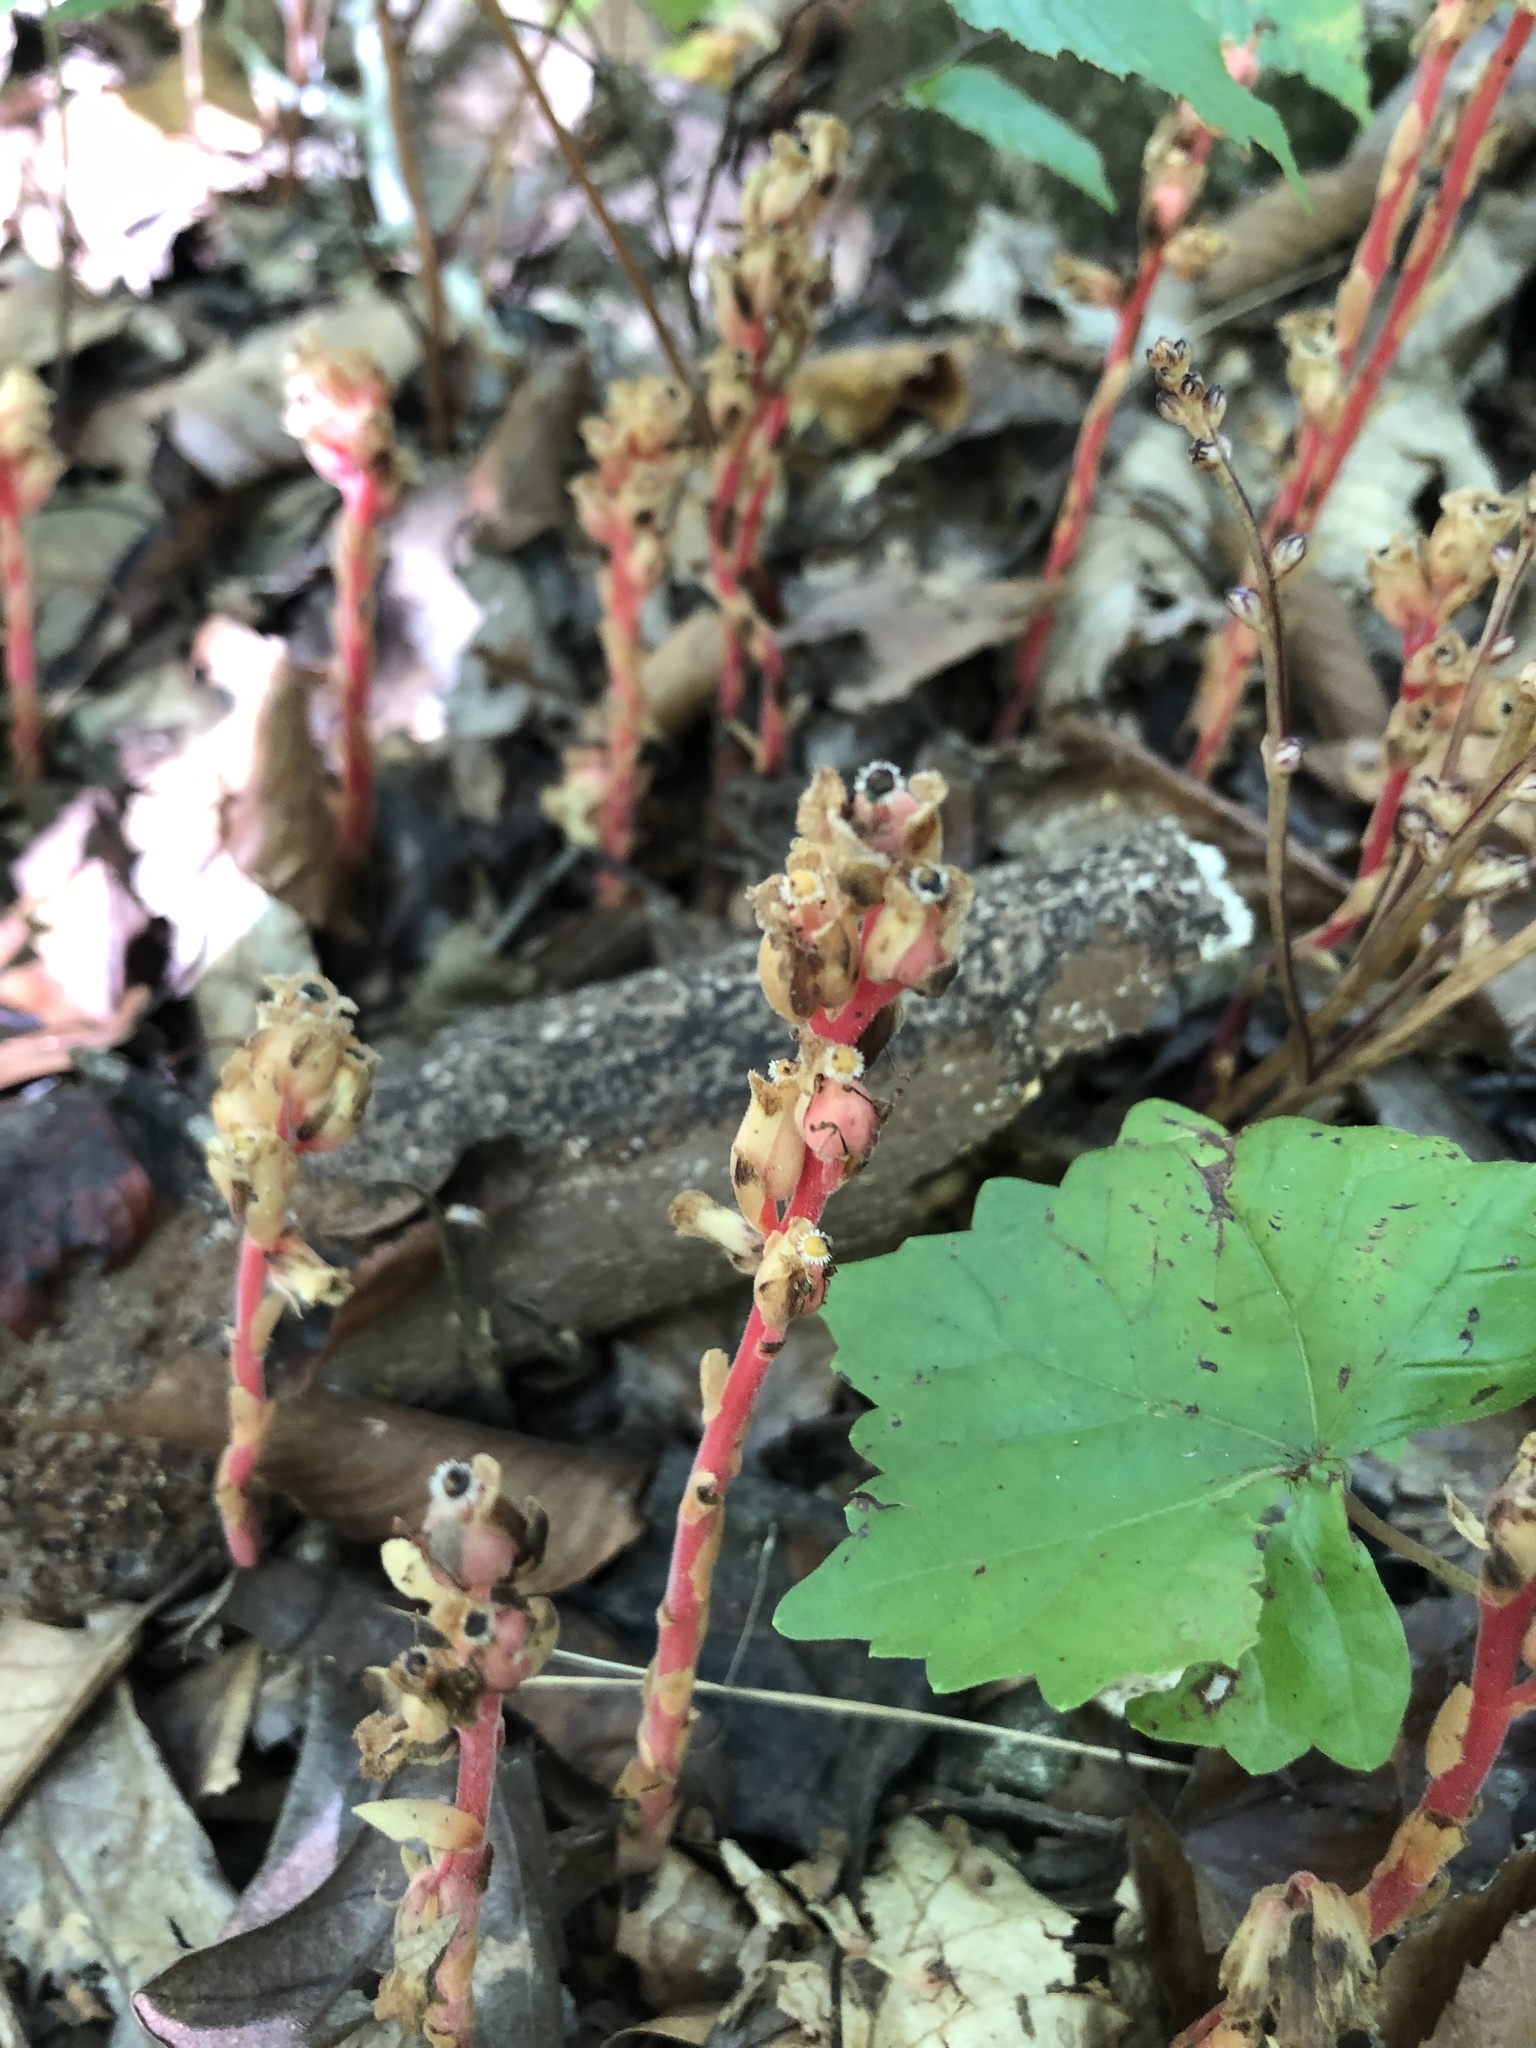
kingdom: Plantae
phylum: Tracheophyta
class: Magnoliopsida
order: Ericales
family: Ericaceae
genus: Hypopitys
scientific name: Hypopitys monotropa
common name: Yellow bird's-nest
